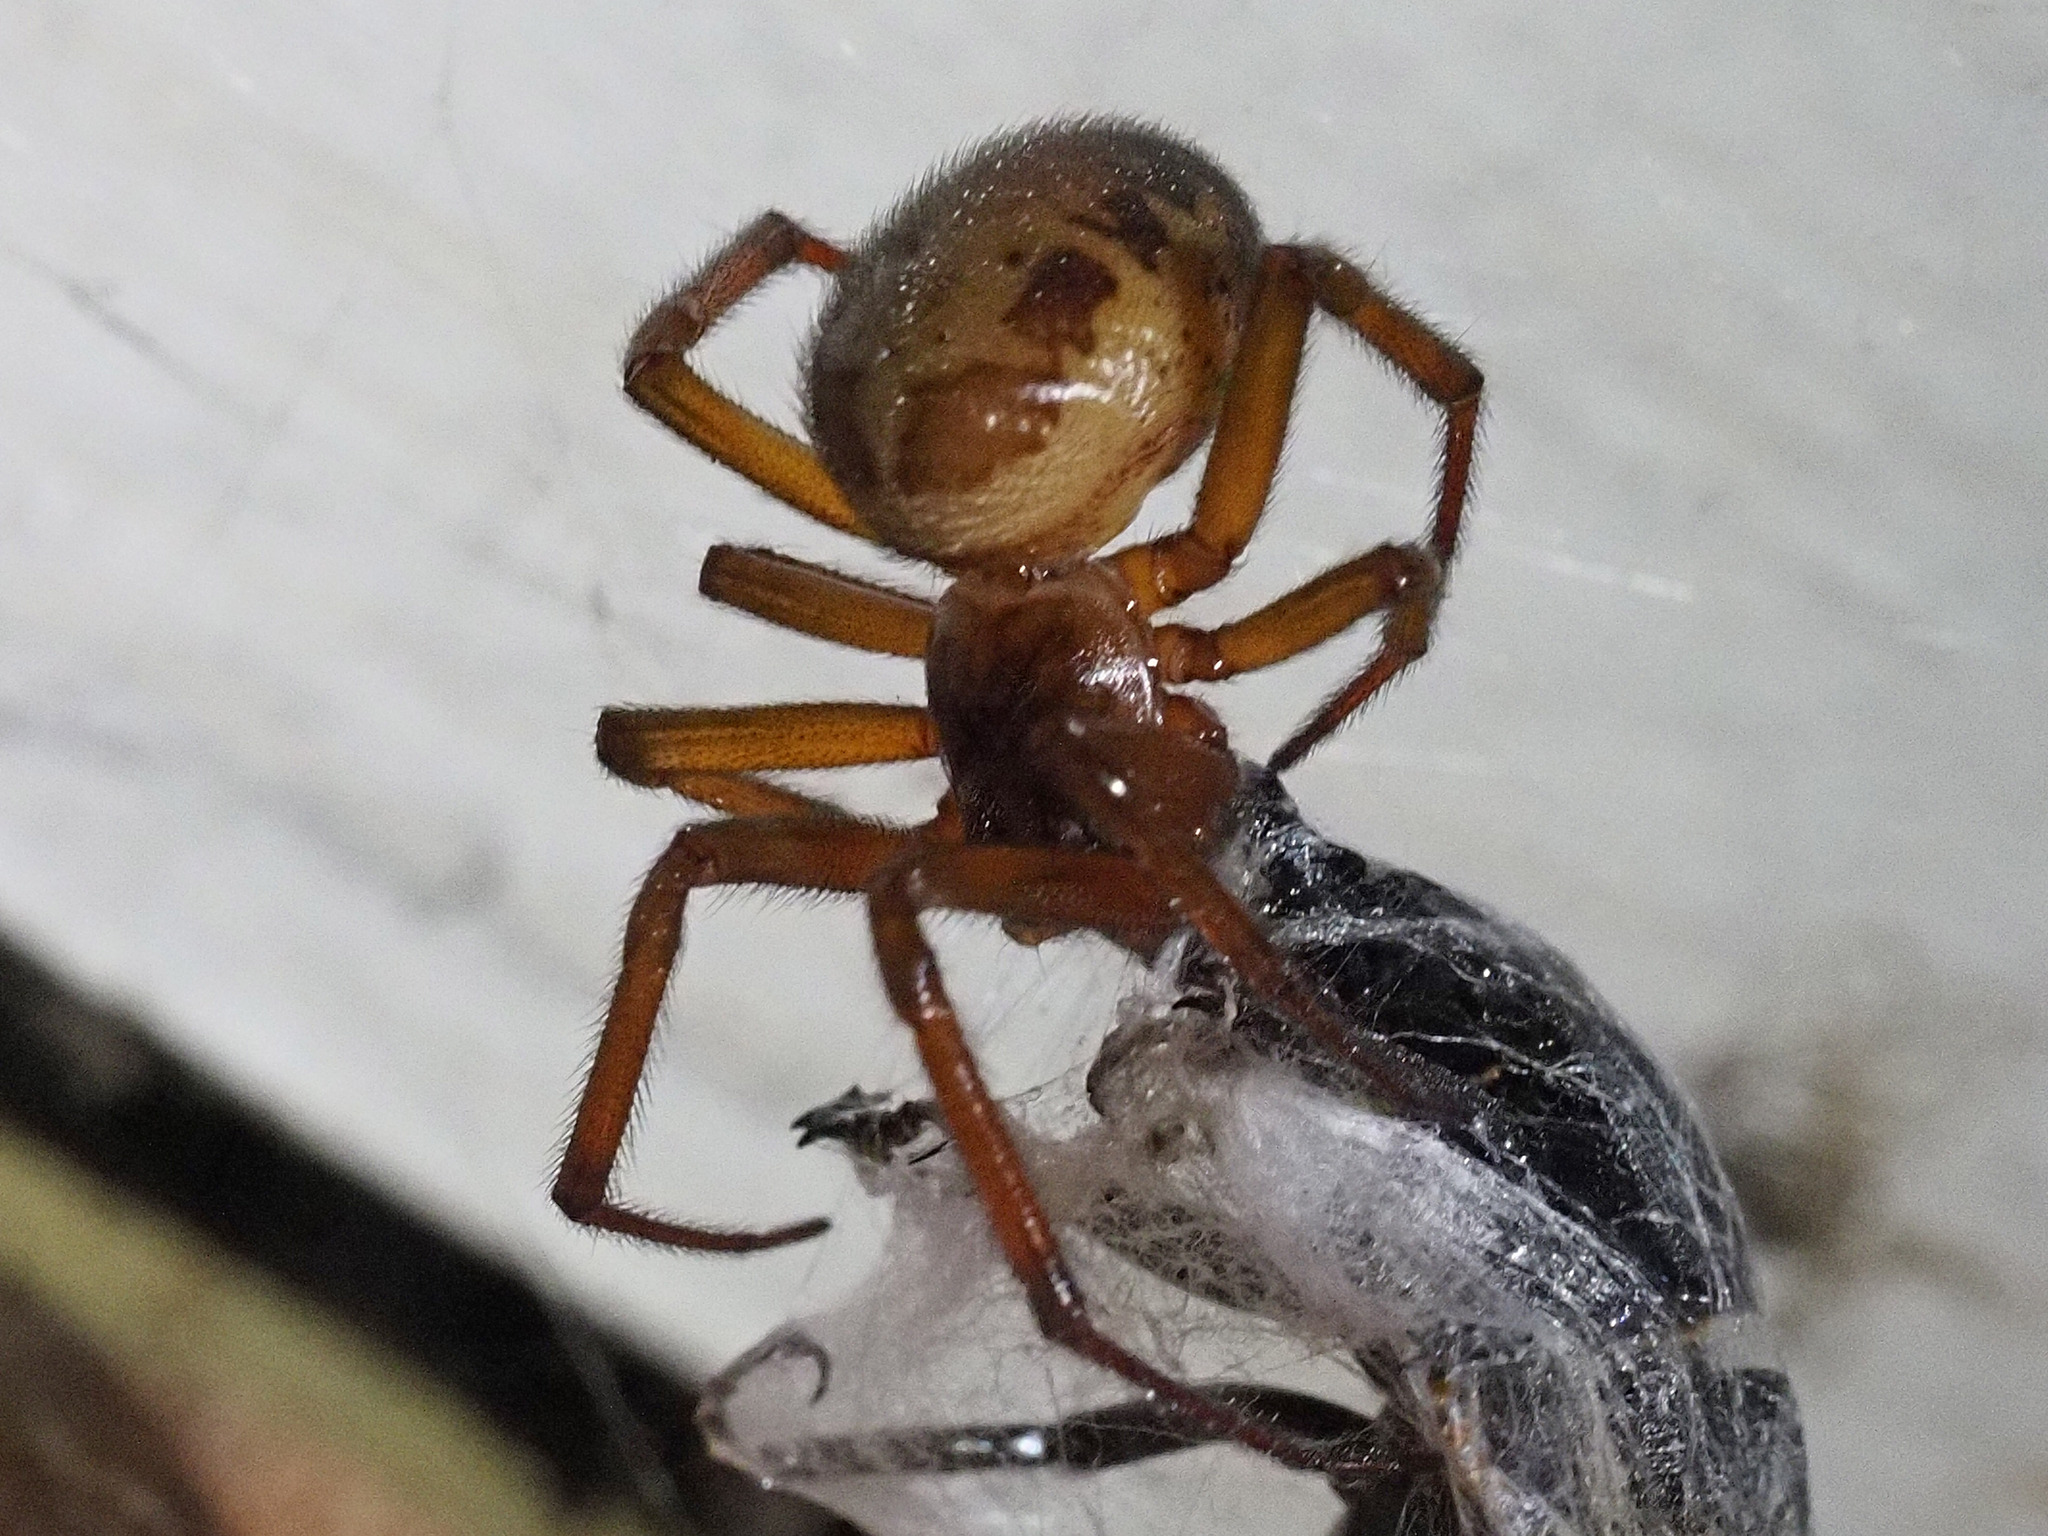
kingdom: Animalia
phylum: Arthropoda
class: Arachnida
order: Araneae
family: Theridiidae
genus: Steatoda
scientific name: Steatoda nobilis
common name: Cobweb weaver
